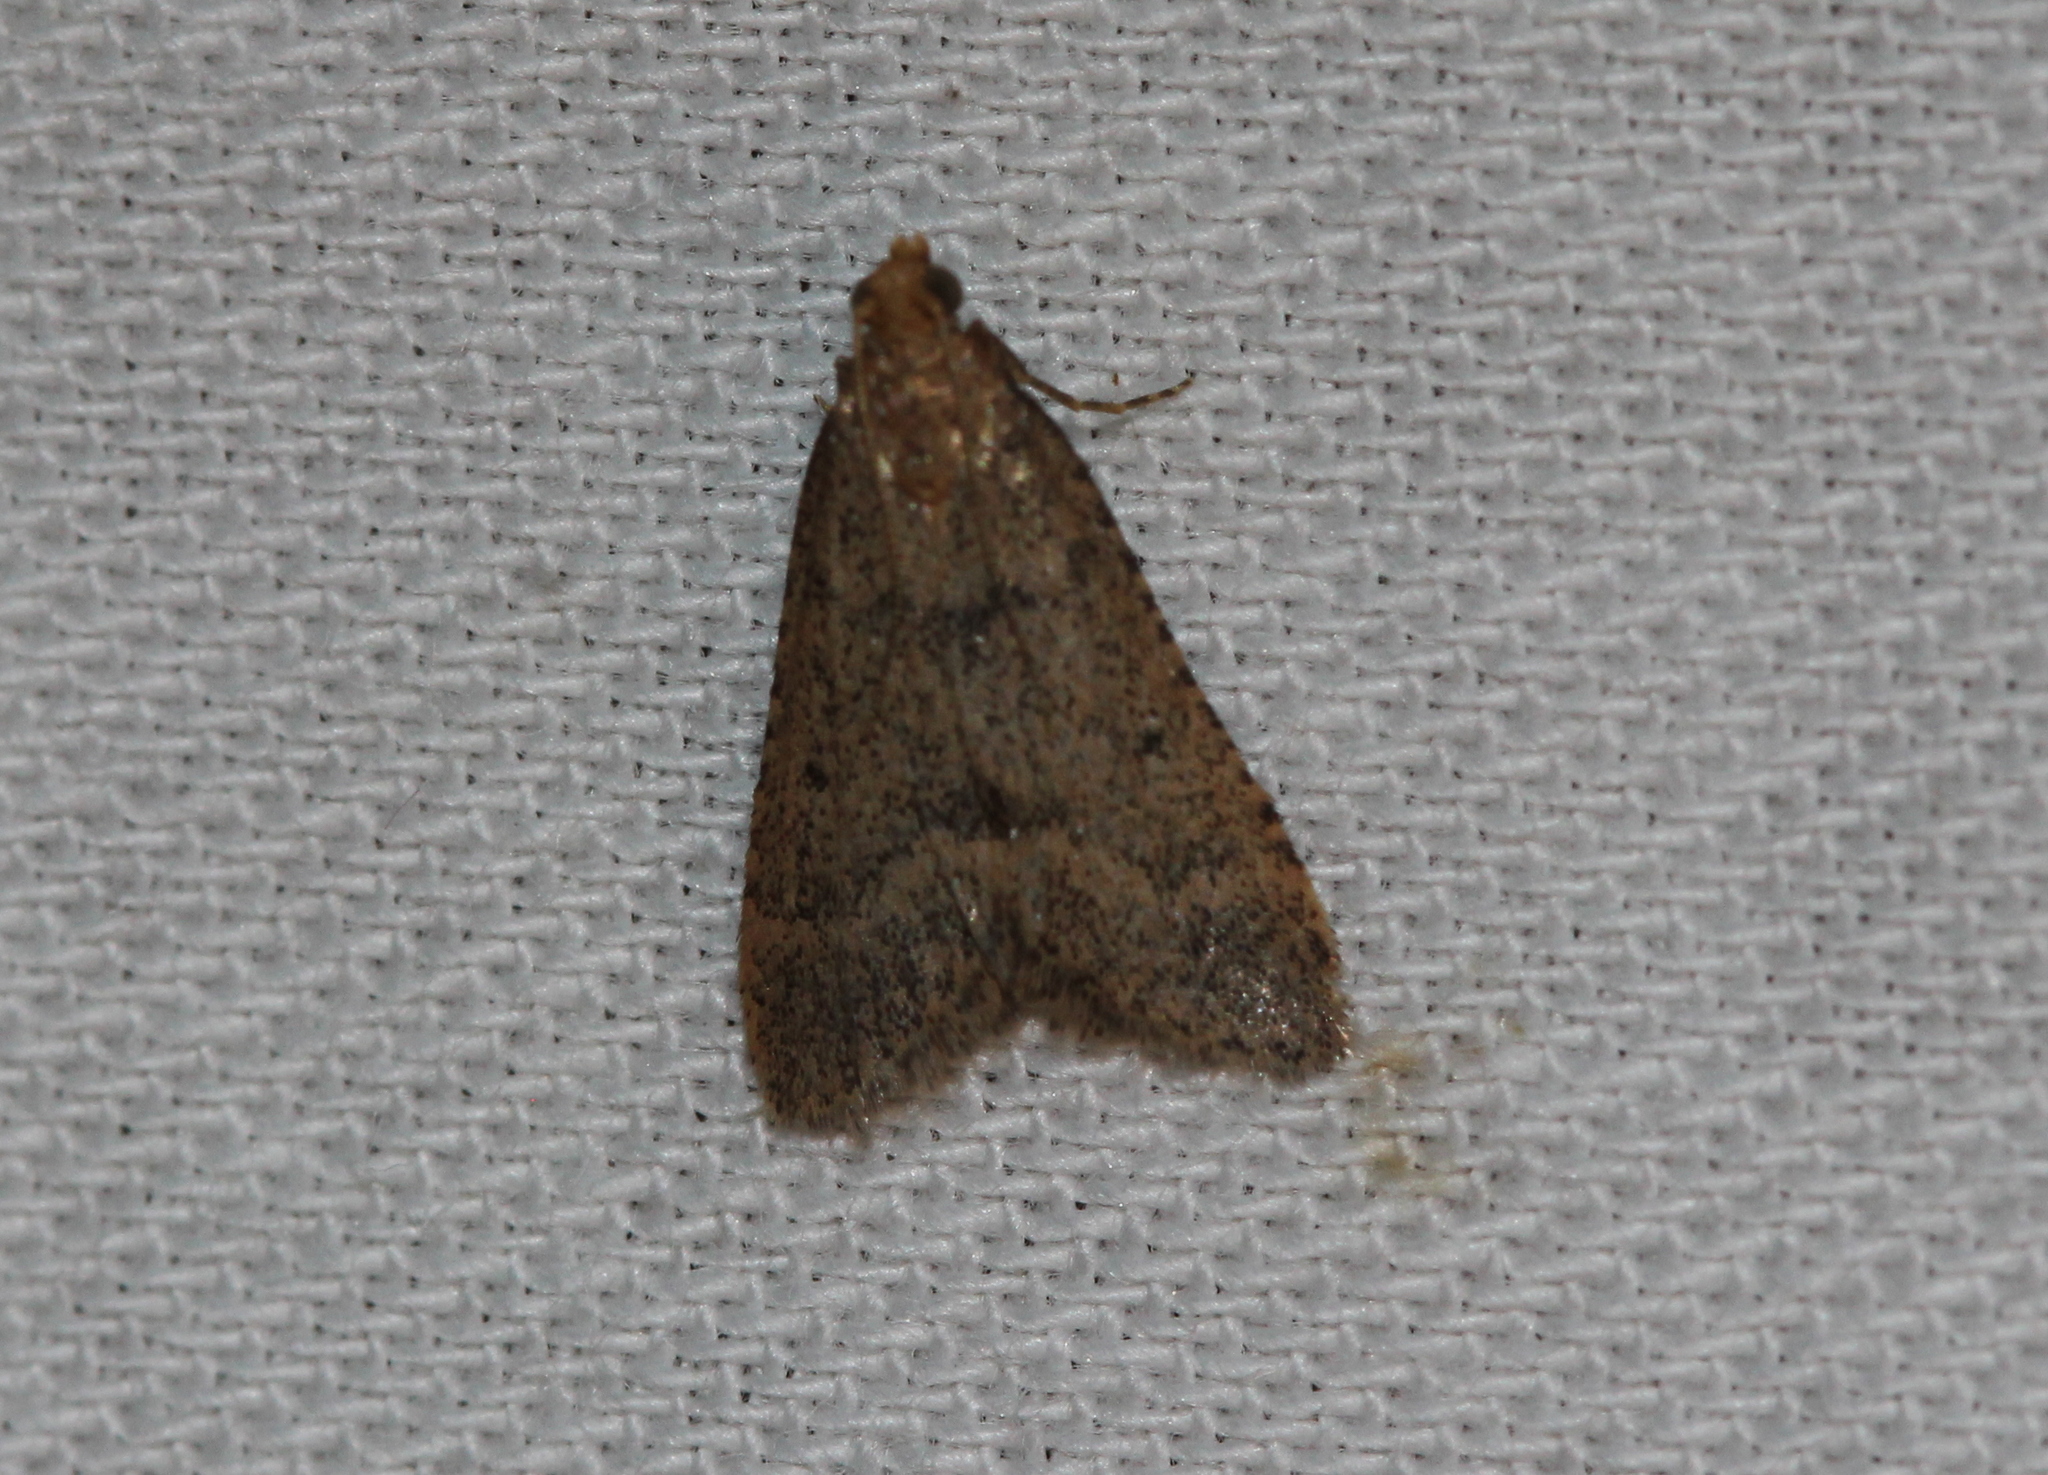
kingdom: Animalia
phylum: Arthropoda
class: Insecta
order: Lepidoptera
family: Pyralidae
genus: Bostra
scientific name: Bostra obsoletalis
